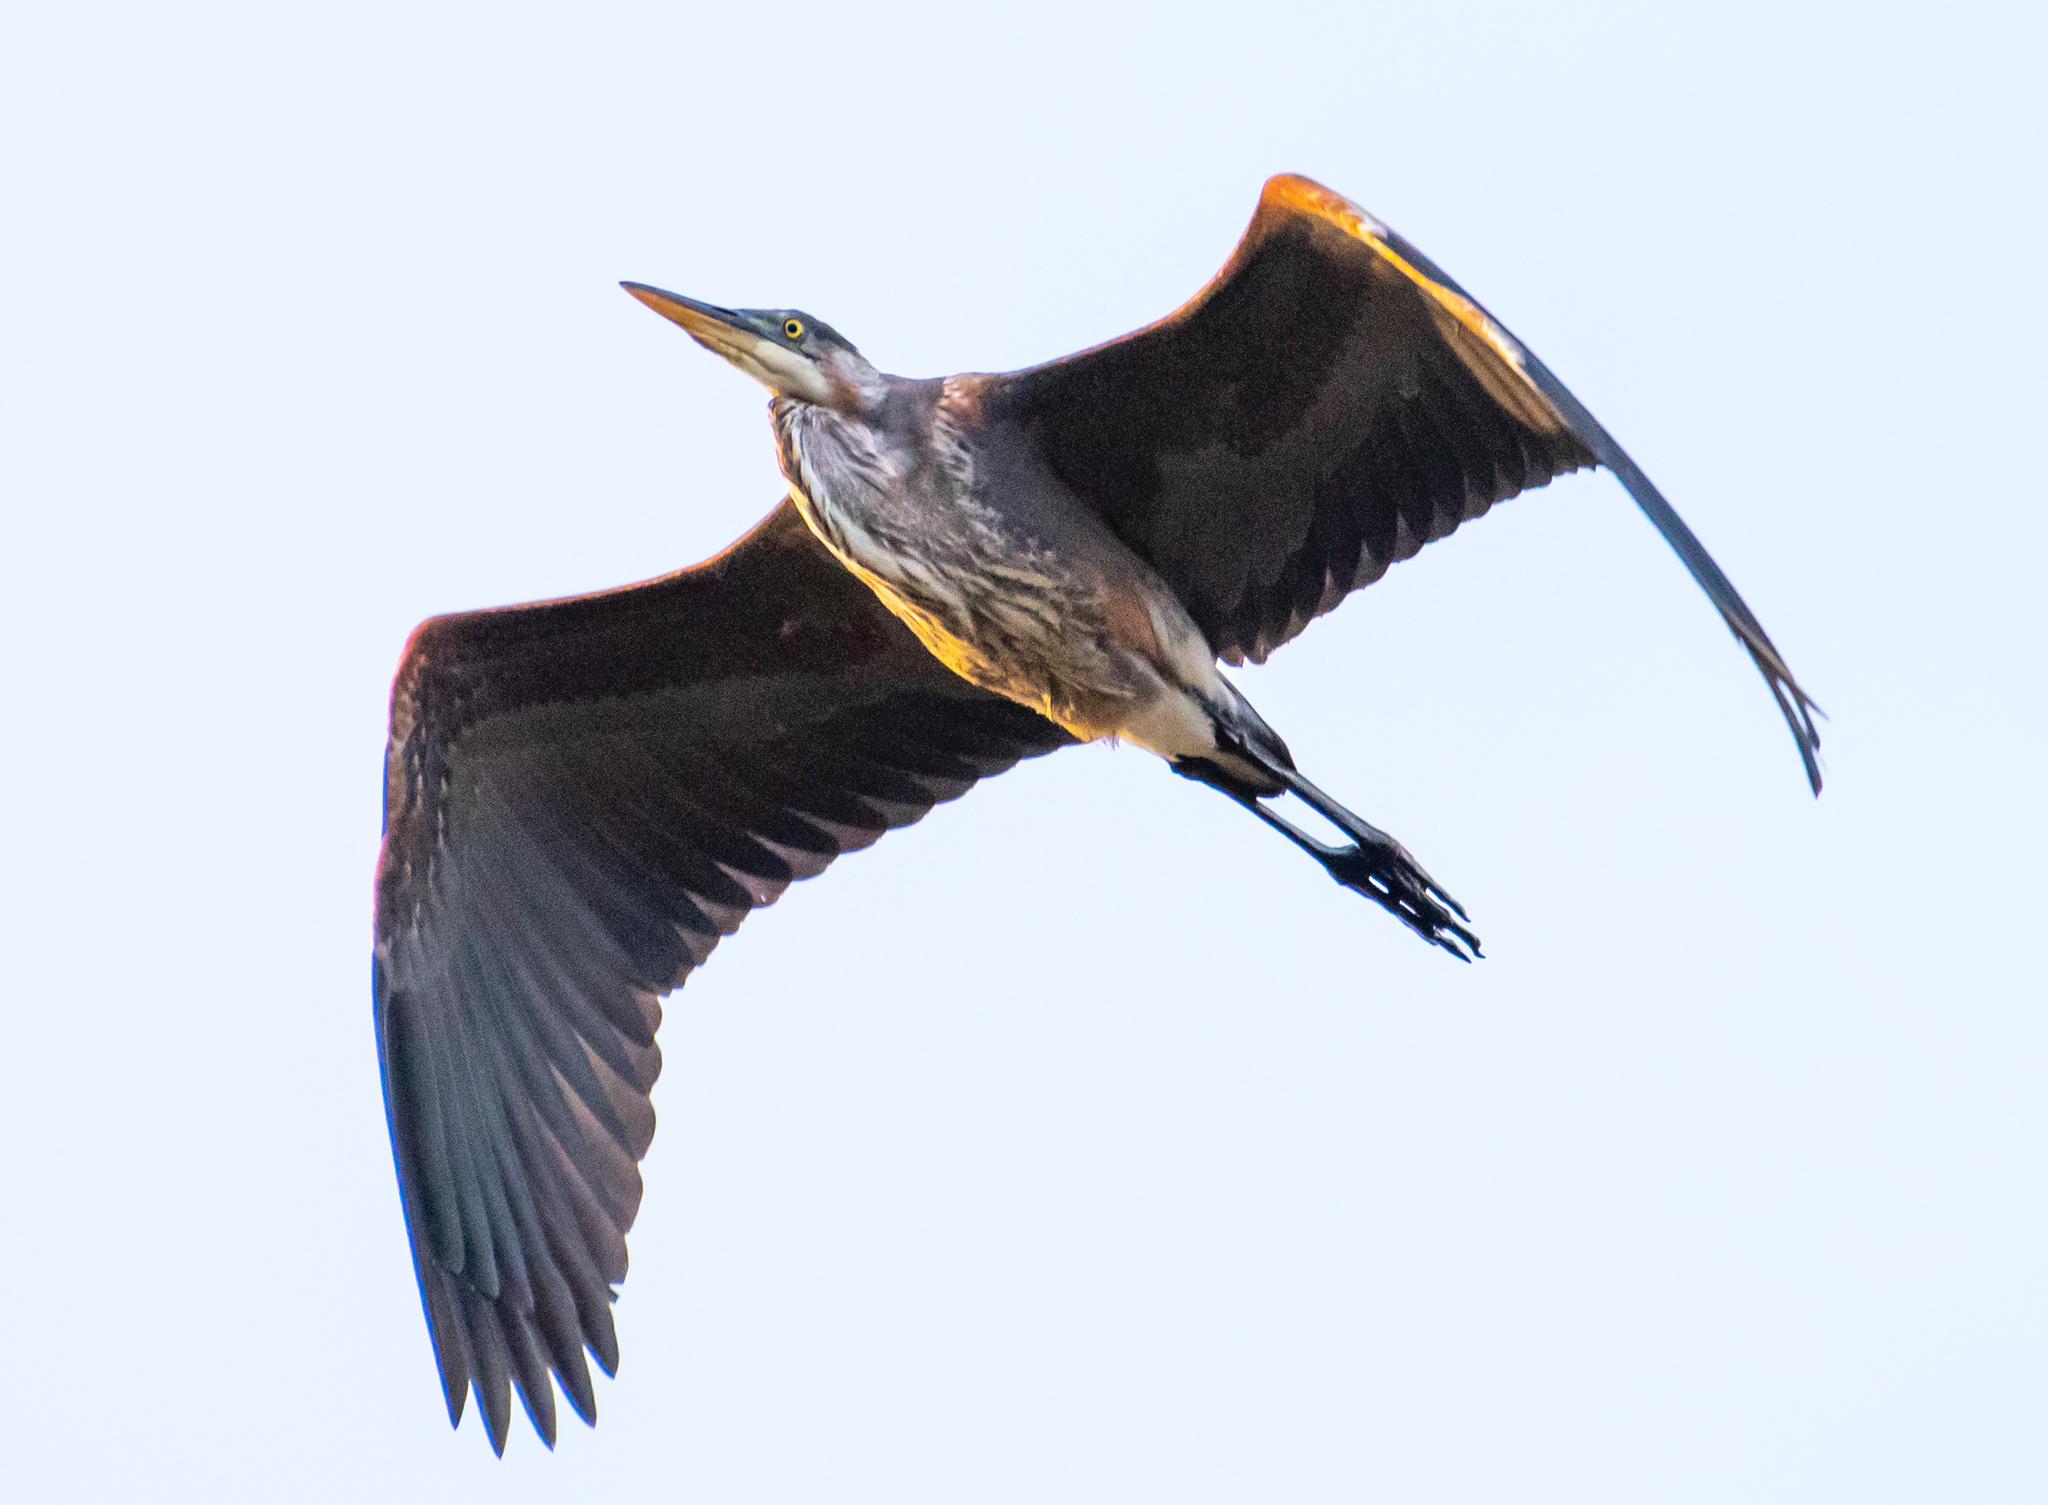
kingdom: Animalia
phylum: Chordata
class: Aves
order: Pelecaniformes
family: Ardeidae
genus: Ardea
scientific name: Ardea herodias
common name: Great blue heron
